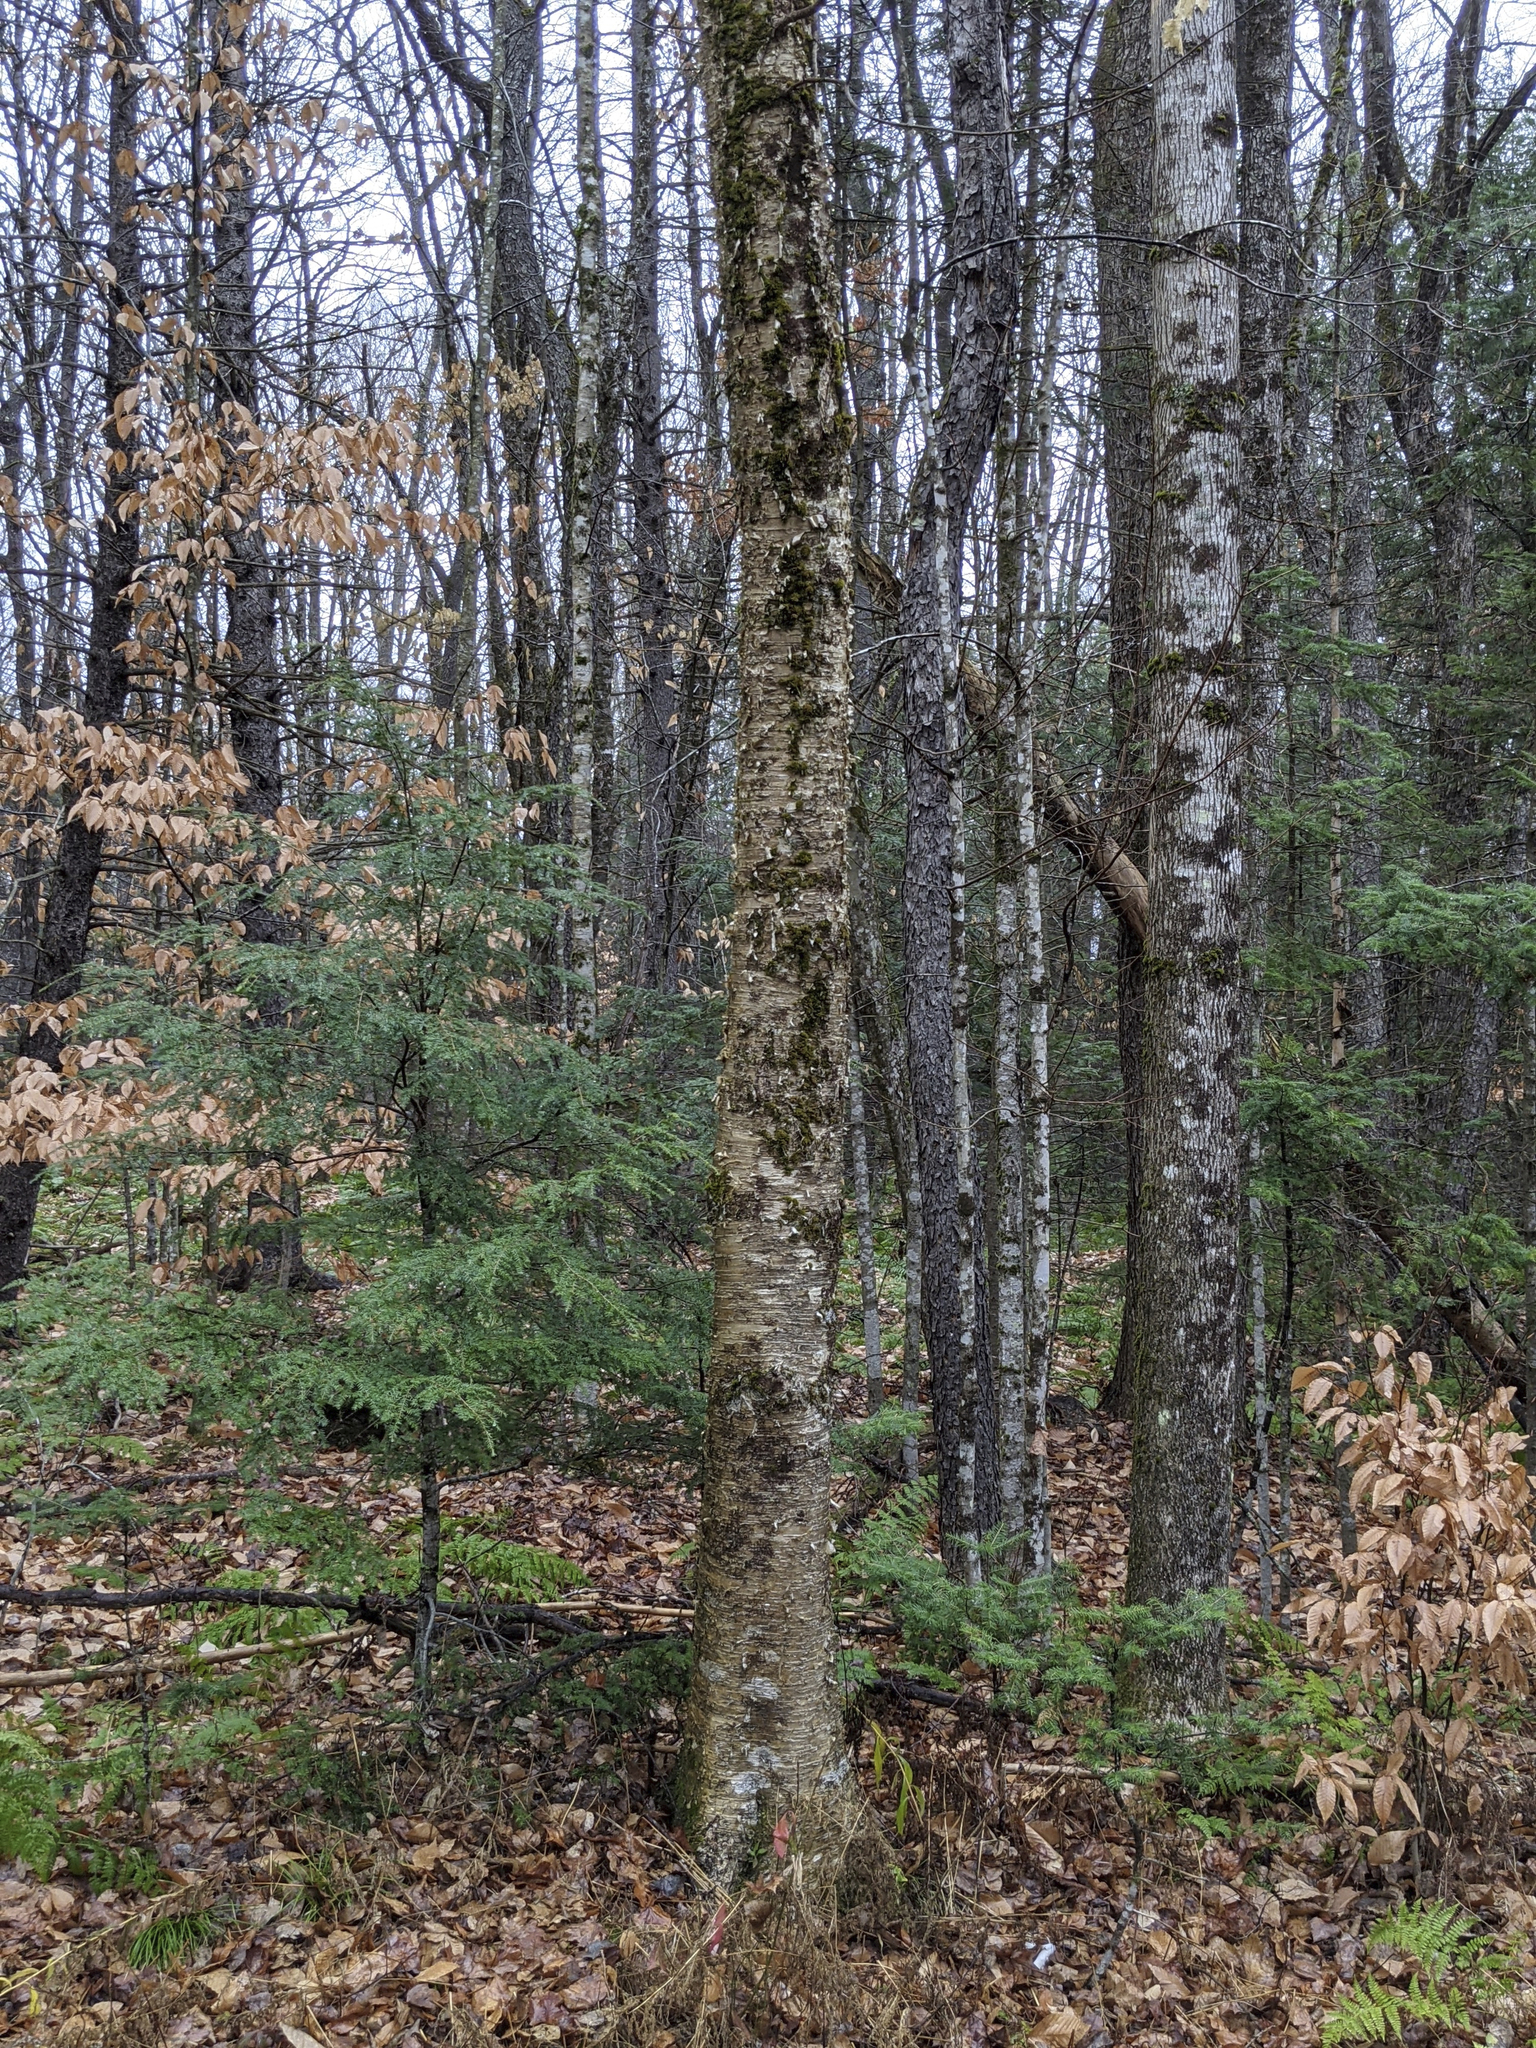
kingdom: Plantae
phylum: Tracheophyta
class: Magnoliopsida
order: Fagales
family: Betulaceae
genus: Betula
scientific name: Betula alleghaniensis
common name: Yellow birch
